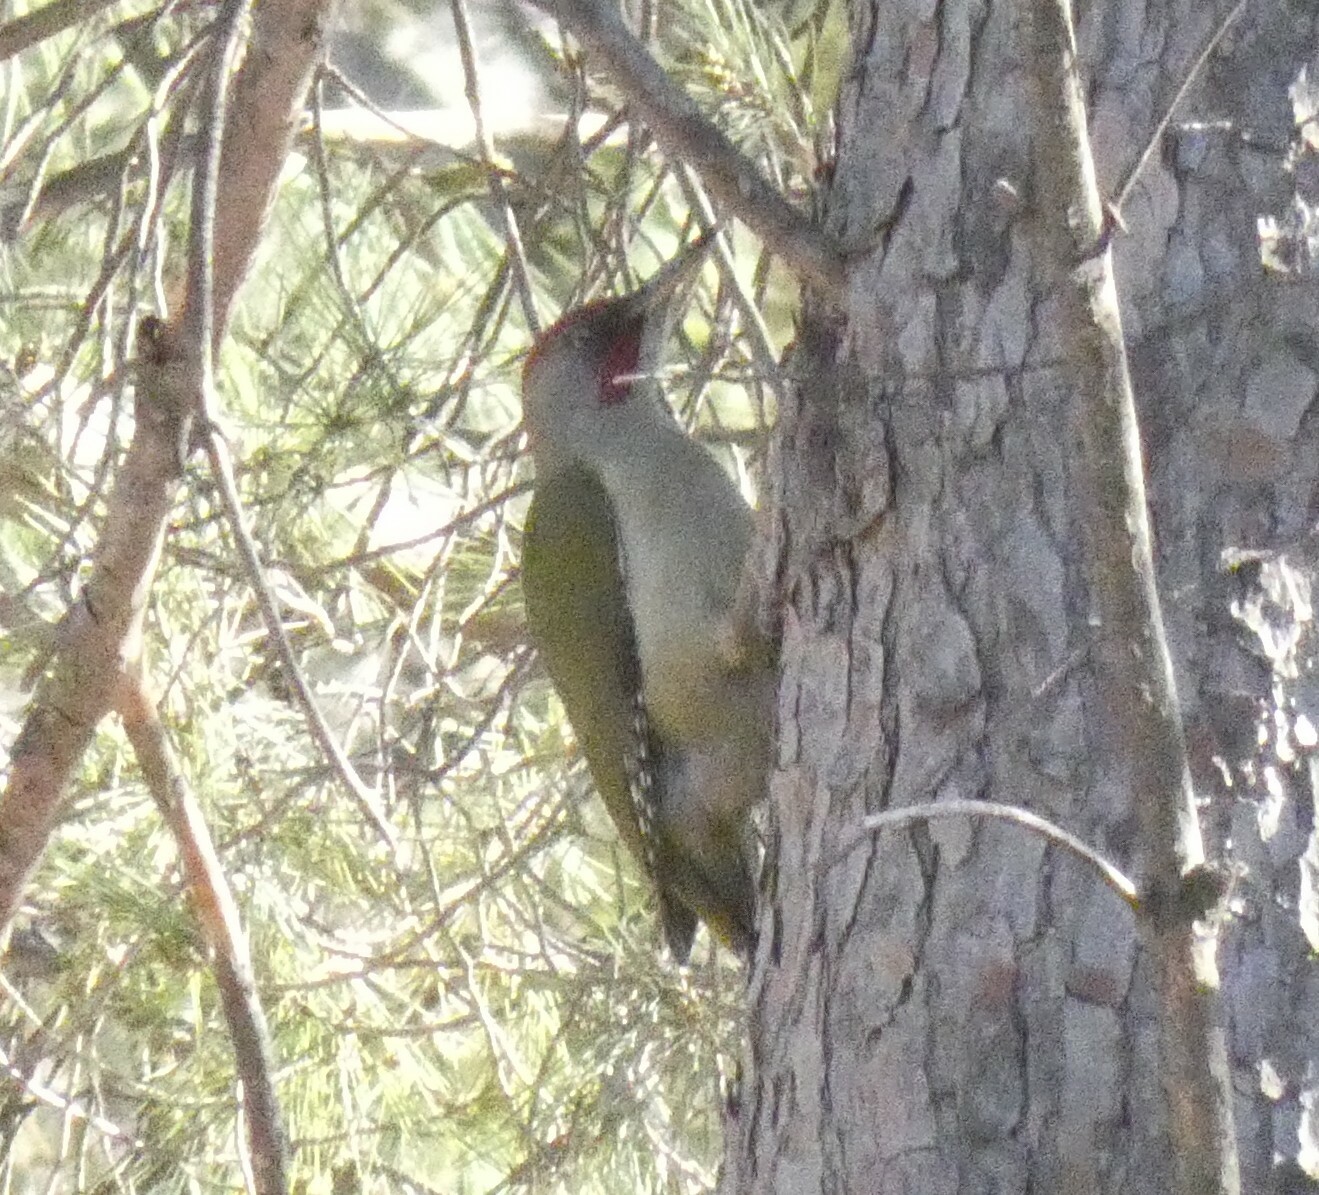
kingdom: Animalia
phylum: Chordata
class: Aves
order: Piciformes
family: Picidae
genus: Picus
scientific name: Picus sharpei
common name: Iberian green woodpecker
